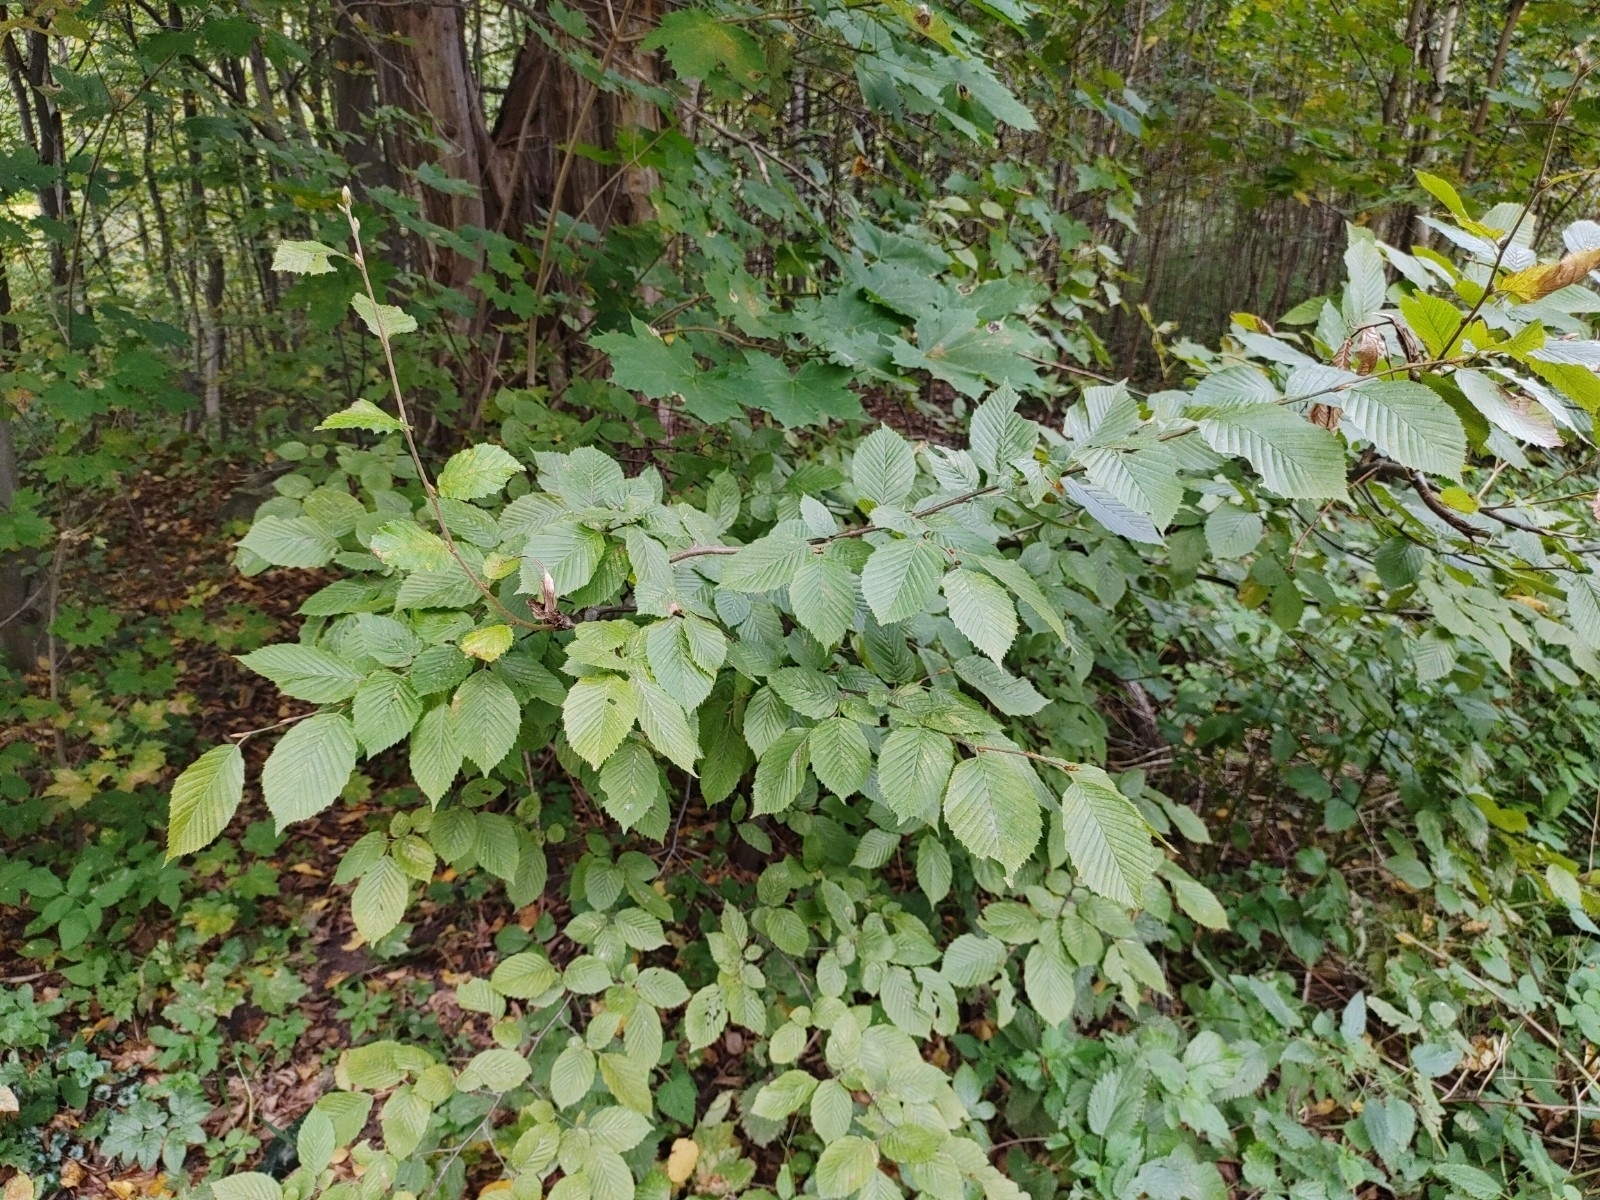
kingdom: Plantae
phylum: Tracheophyta
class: Magnoliopsida
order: Fagales
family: Betulaceae
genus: Carpinus
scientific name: Carpinus betulus
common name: Hornbeam
